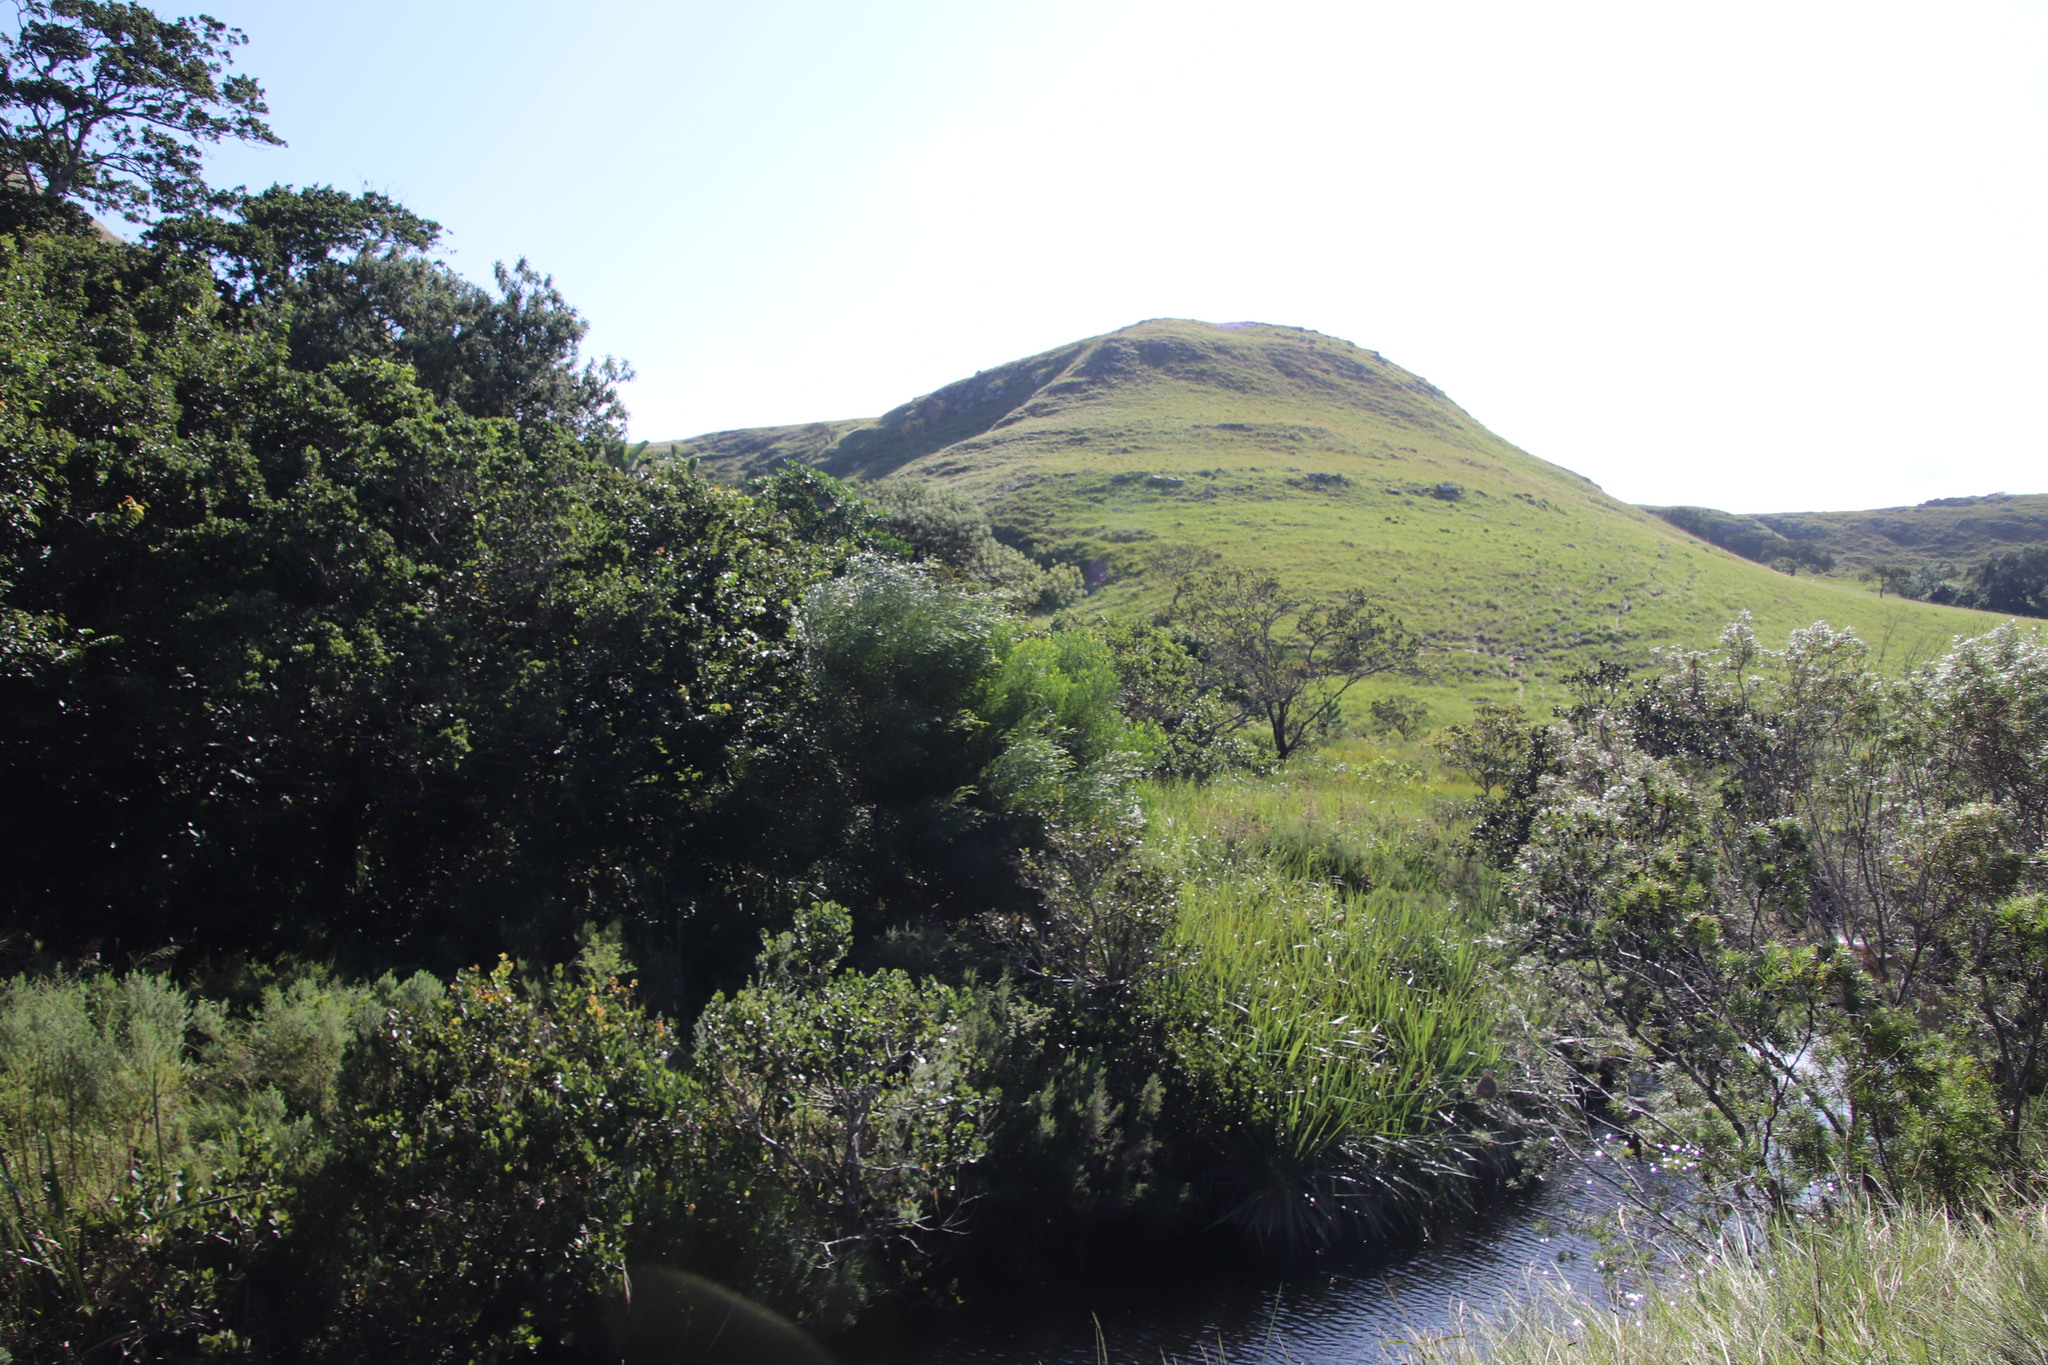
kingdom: Plantae
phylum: Tracheophyta
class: Magnoliopsida
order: Proteales
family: Proteaceae
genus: Leucadendron
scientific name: Leucadendron pondoense
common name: Pondoland conebush
